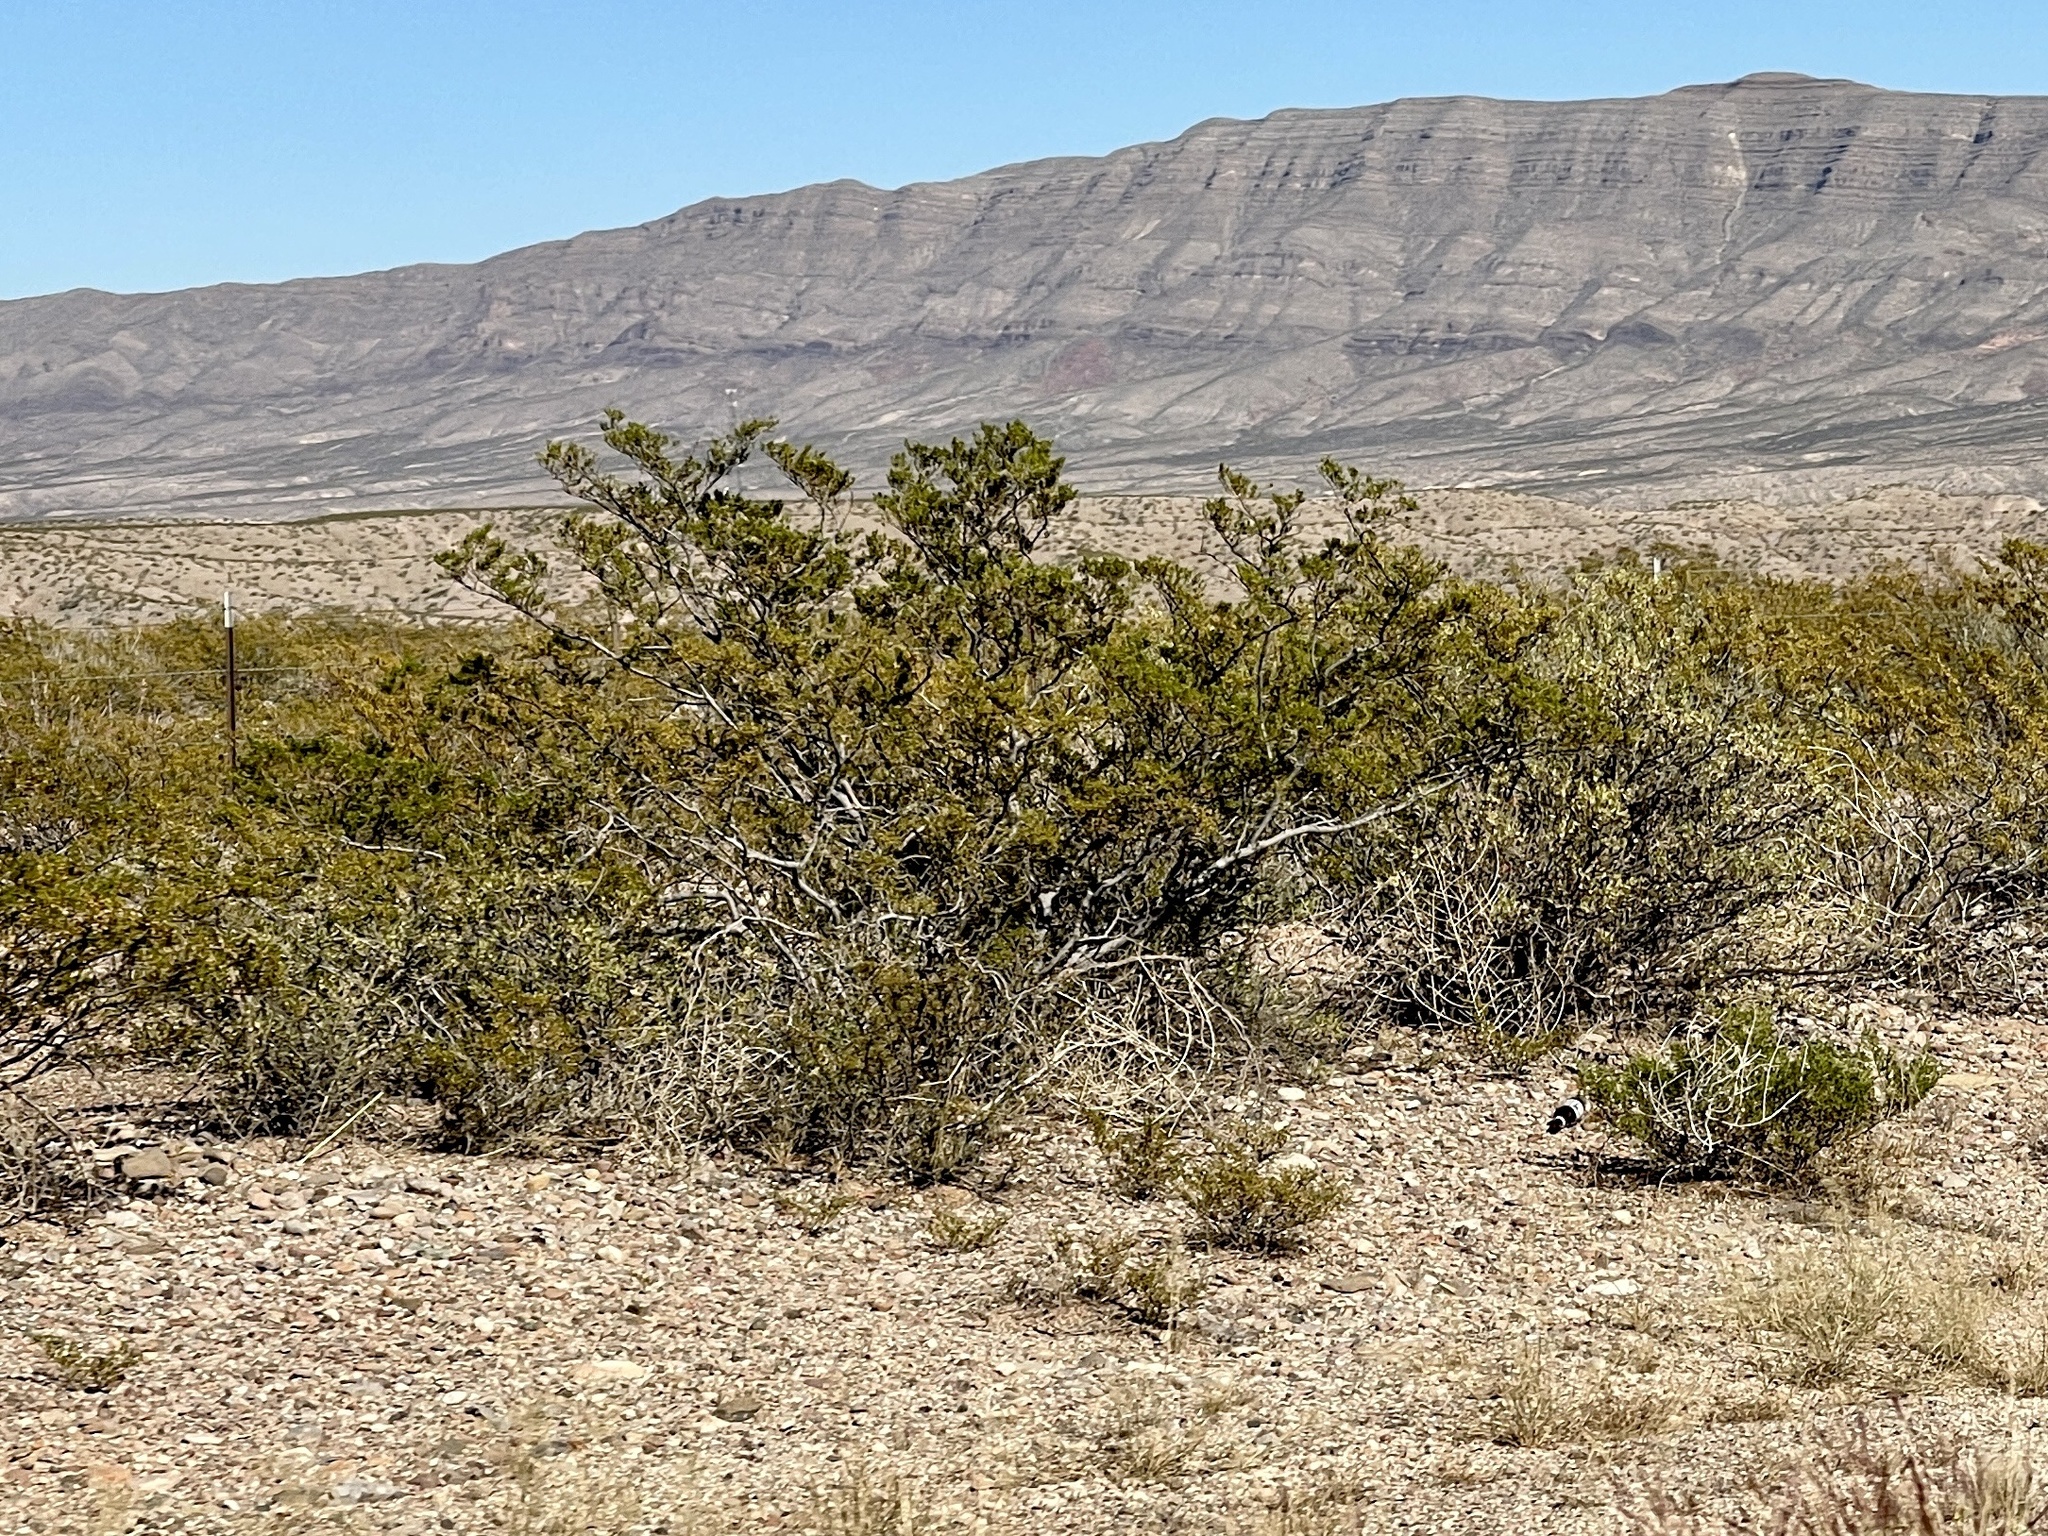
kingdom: Plantae
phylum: Tracheophyta
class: Magnoliopsida
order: Zygophyllales
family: Zygophyllaceae
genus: Larrea
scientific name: Larrea tridentata
